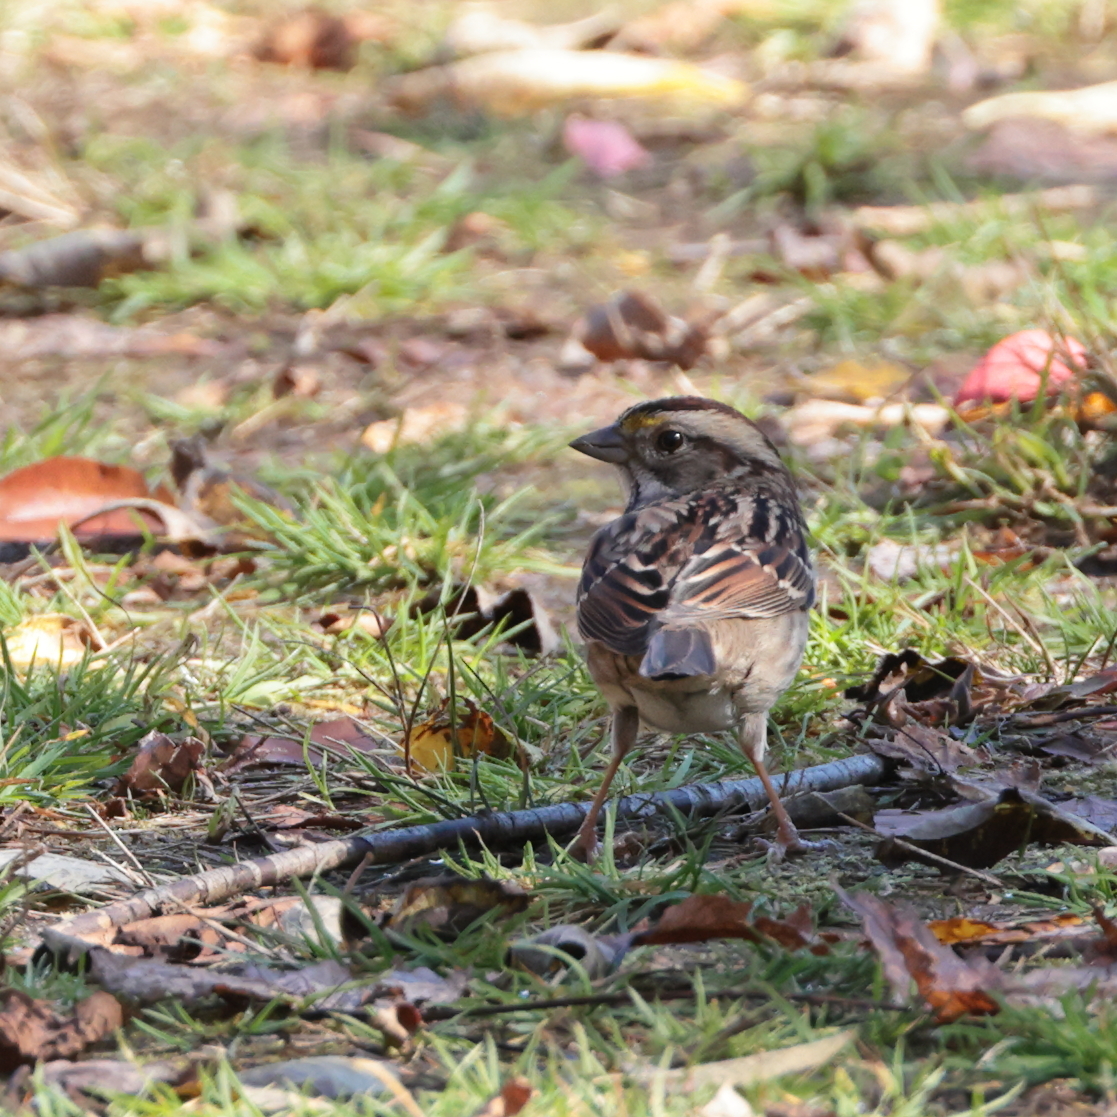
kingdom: Animalia
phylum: Chordata
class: Aves
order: Passeriformes
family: Passerellidae
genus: Zonotrichia
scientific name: Zonotrichia albicollis
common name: White-throated sparrow
